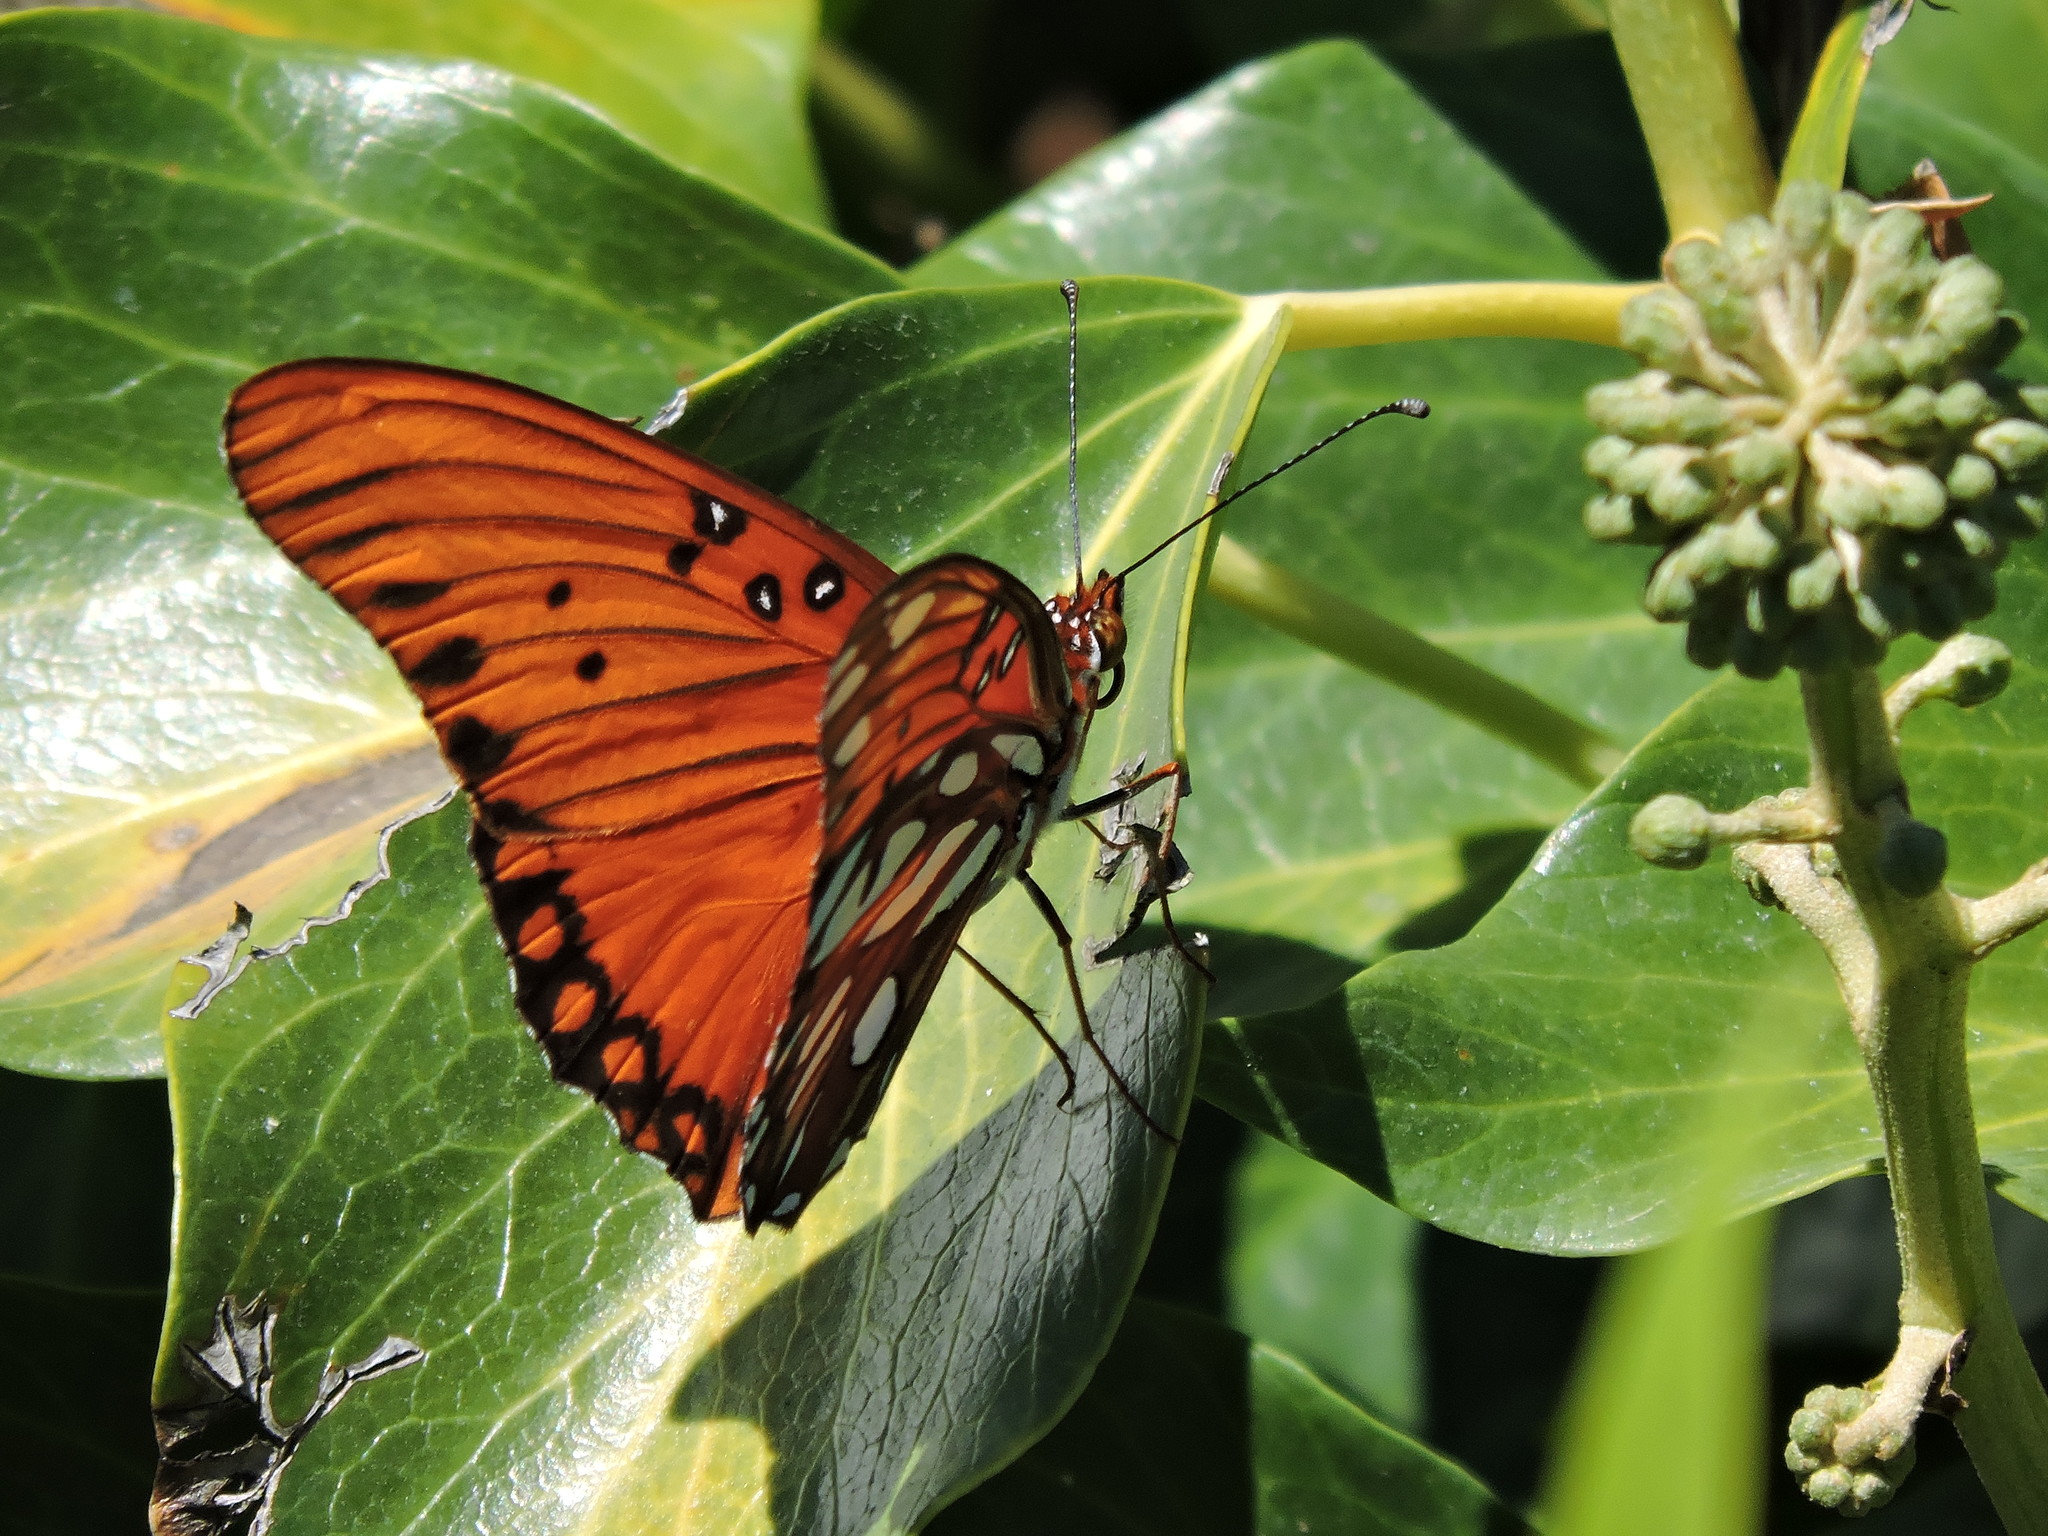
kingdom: Animalia
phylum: Arthropoda
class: Insecta
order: Lepidoptera
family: Nymphalidae
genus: Dione
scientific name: Dione vanillae
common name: Gulf fritillary
